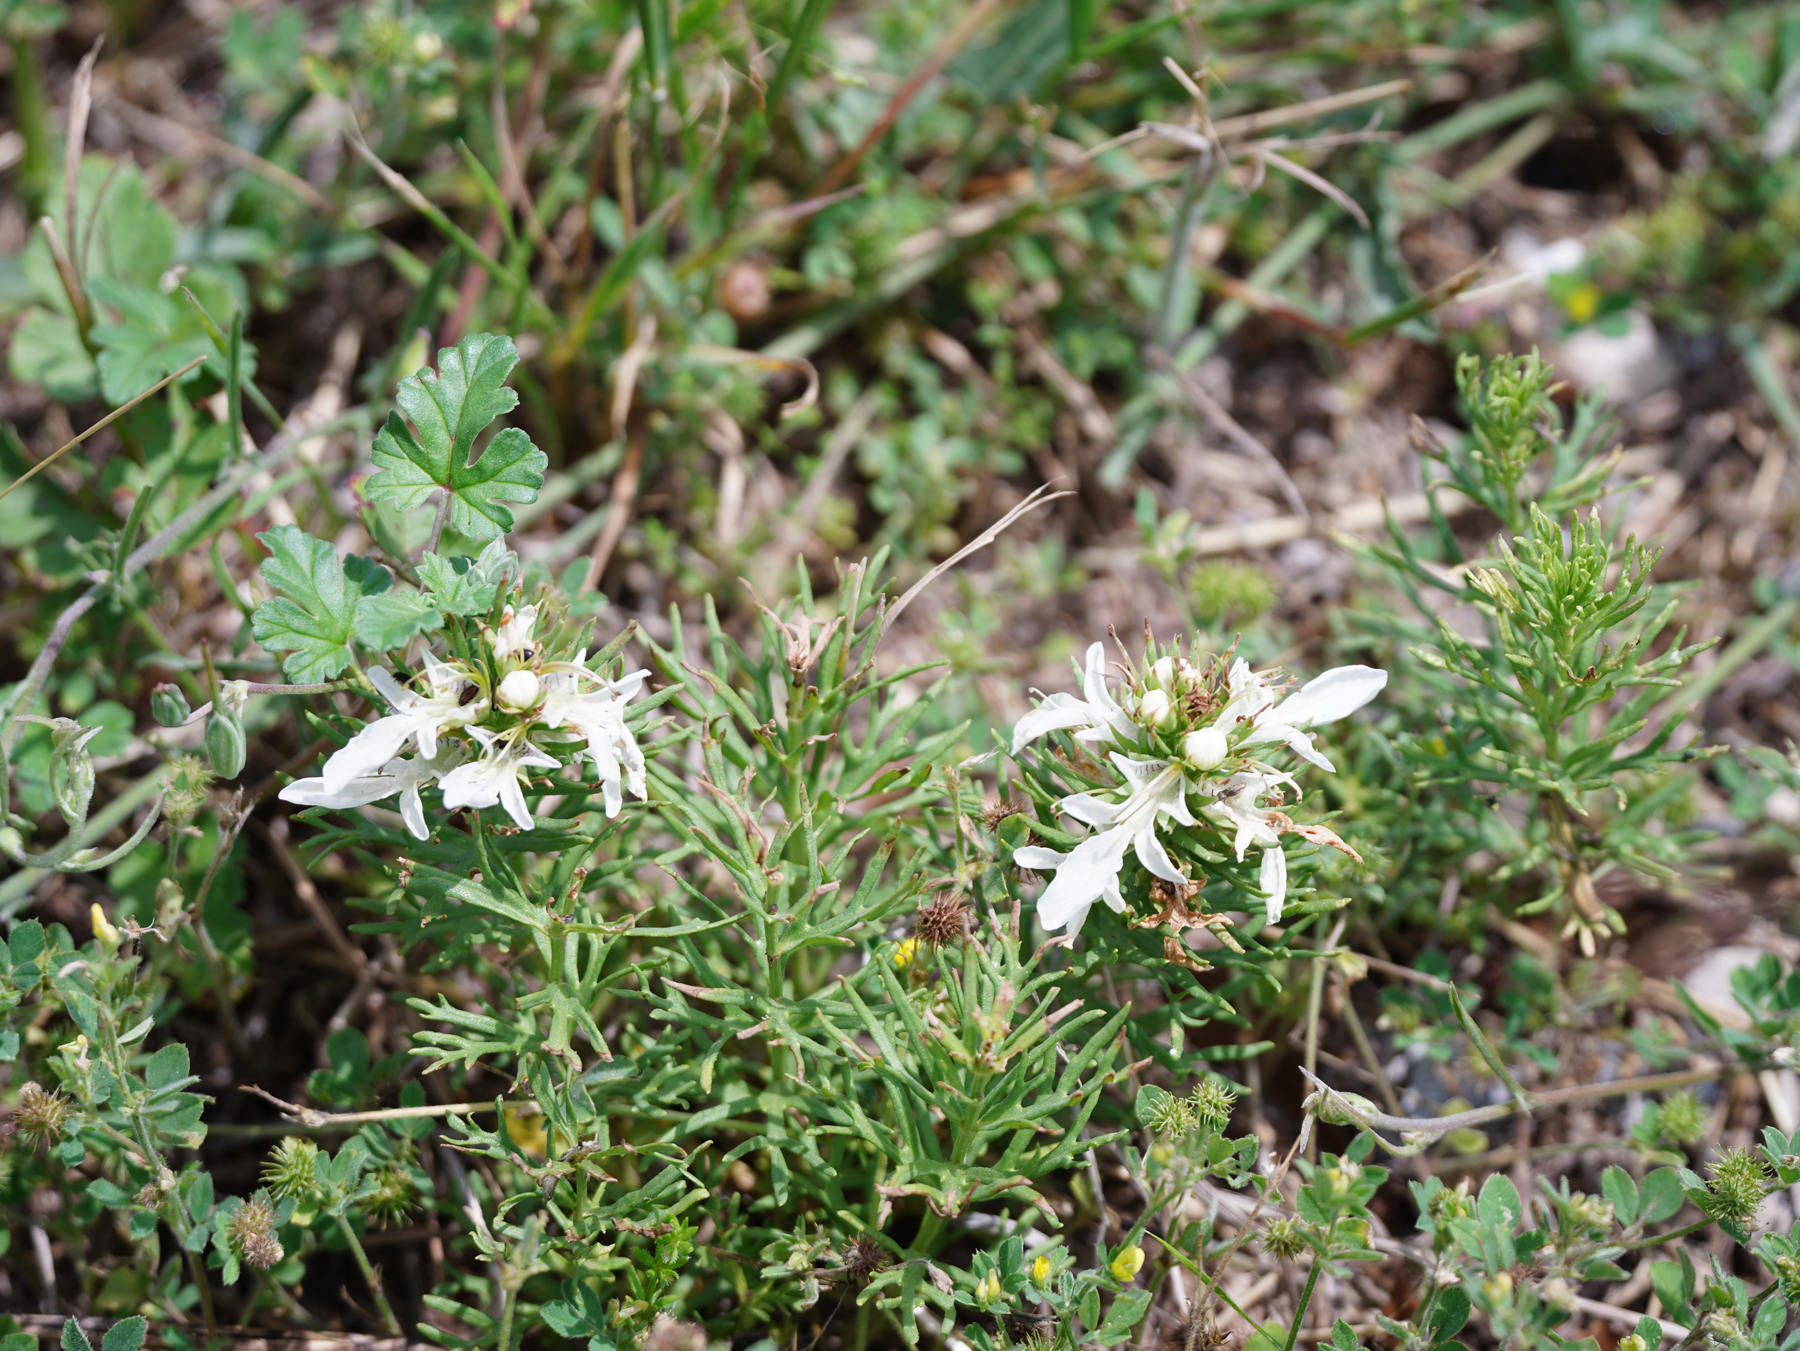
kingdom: Plantae
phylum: Tracheophyta
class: Magnoliopsida
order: Lamiales
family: Lamiaceae
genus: Teucrium
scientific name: Teucrium laciniatum
